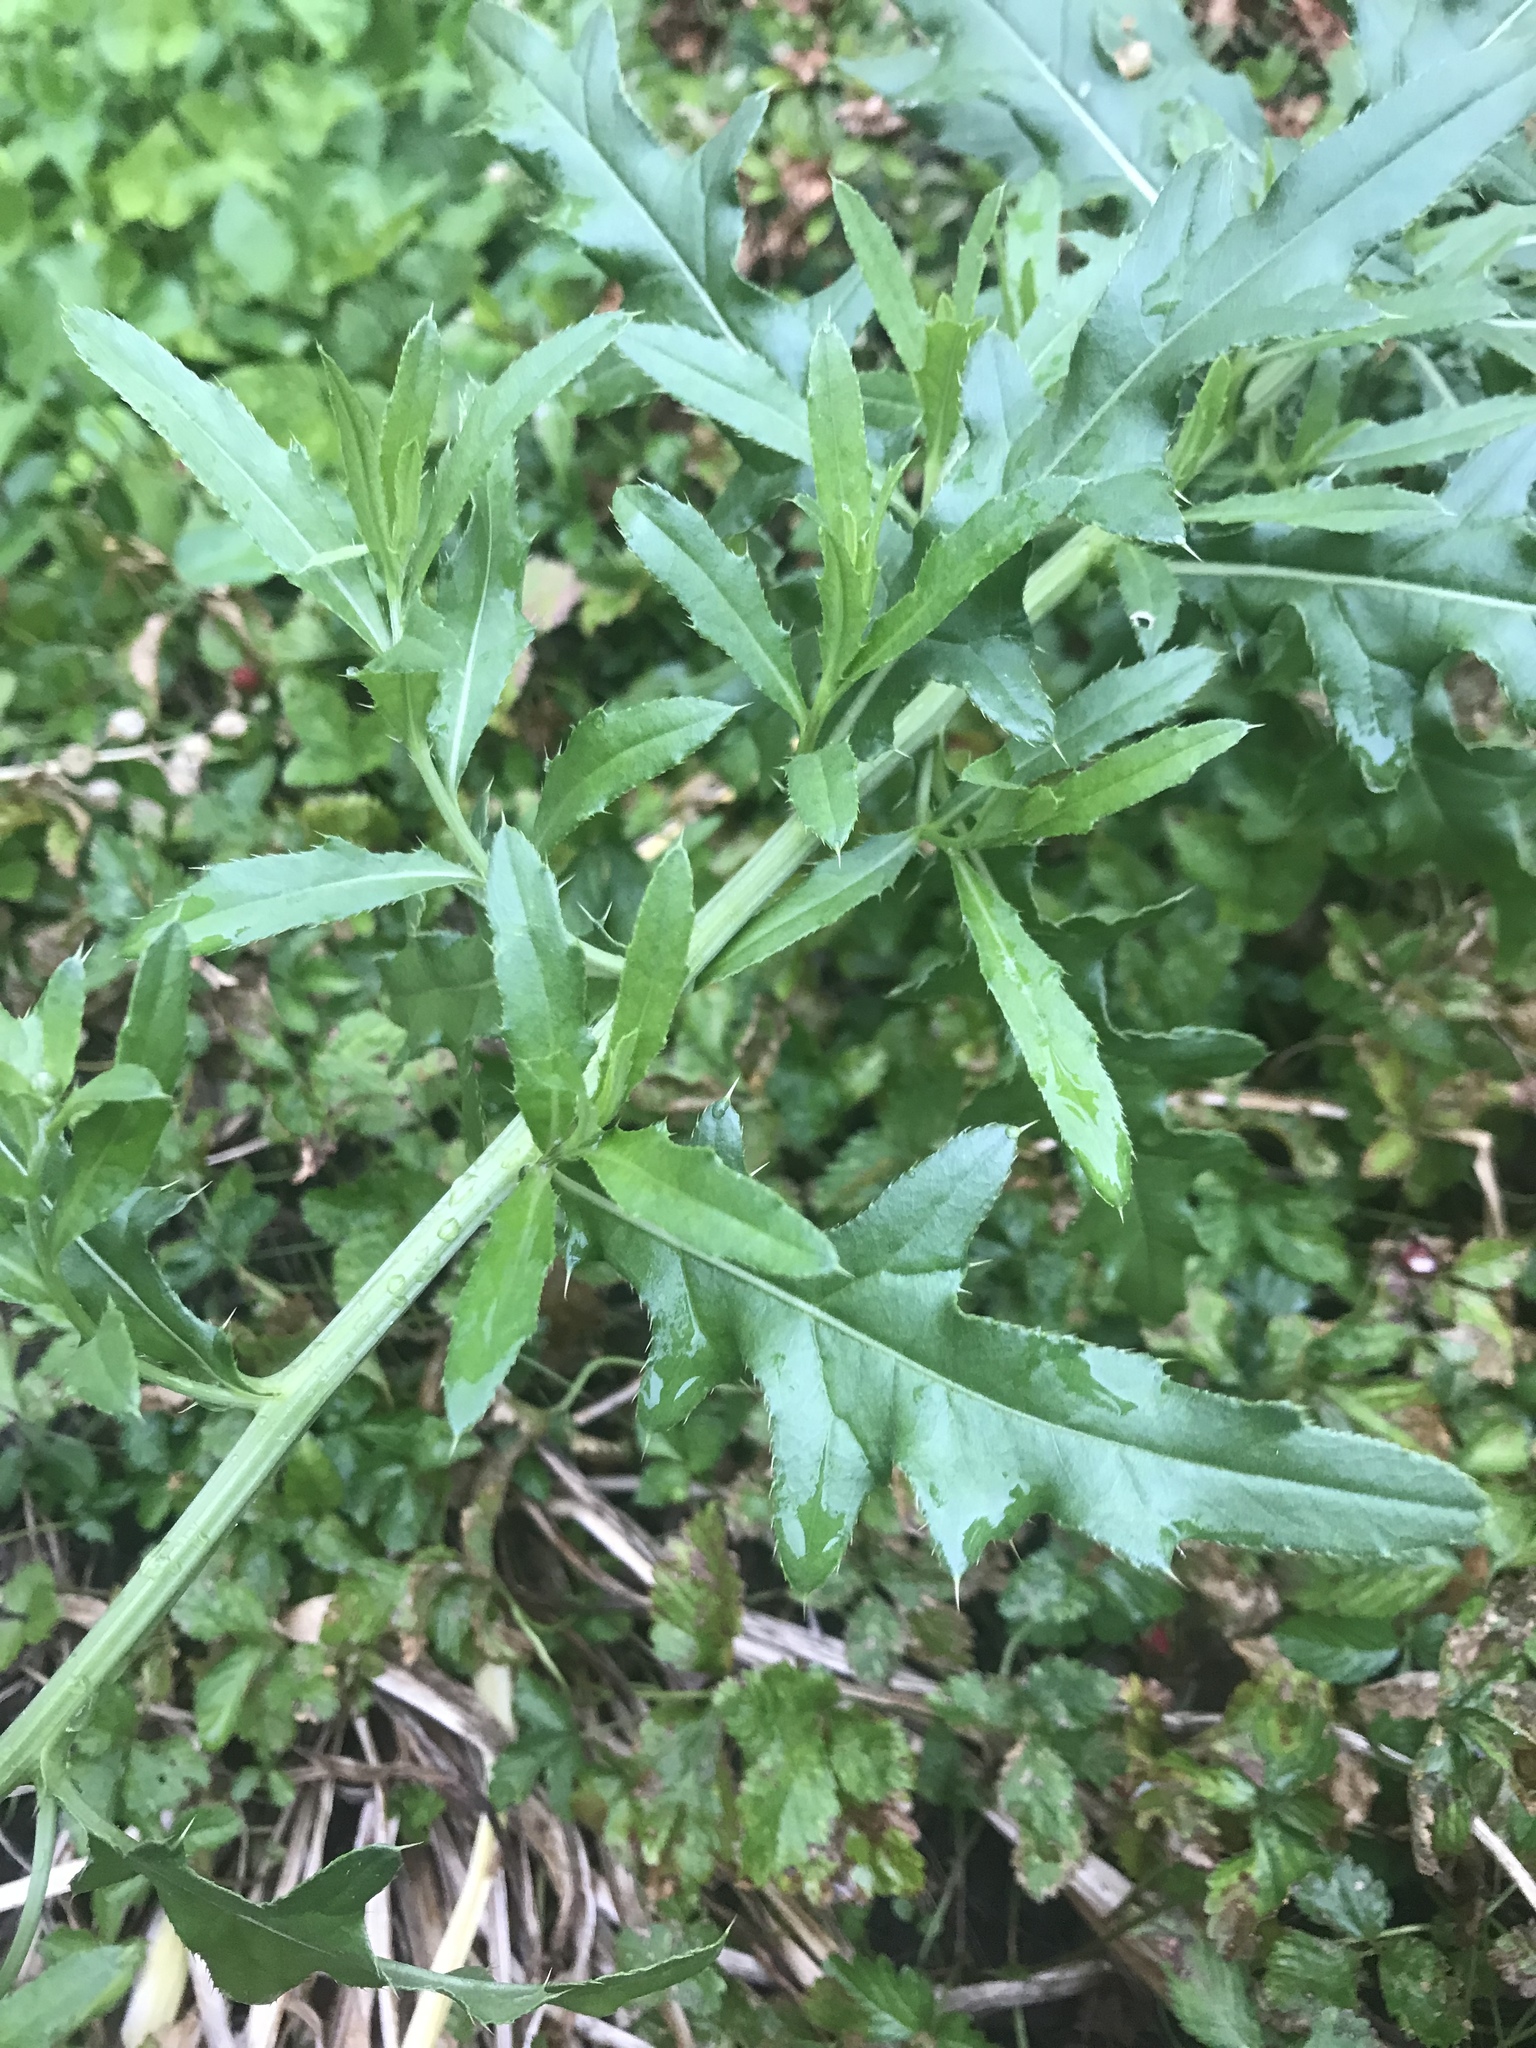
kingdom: Plantae
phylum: Tracheophyta
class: Magnoliopsida
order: Asterales
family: Asteraceae
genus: Cirsium
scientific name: Cirsium arvense
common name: Creeping thistle
